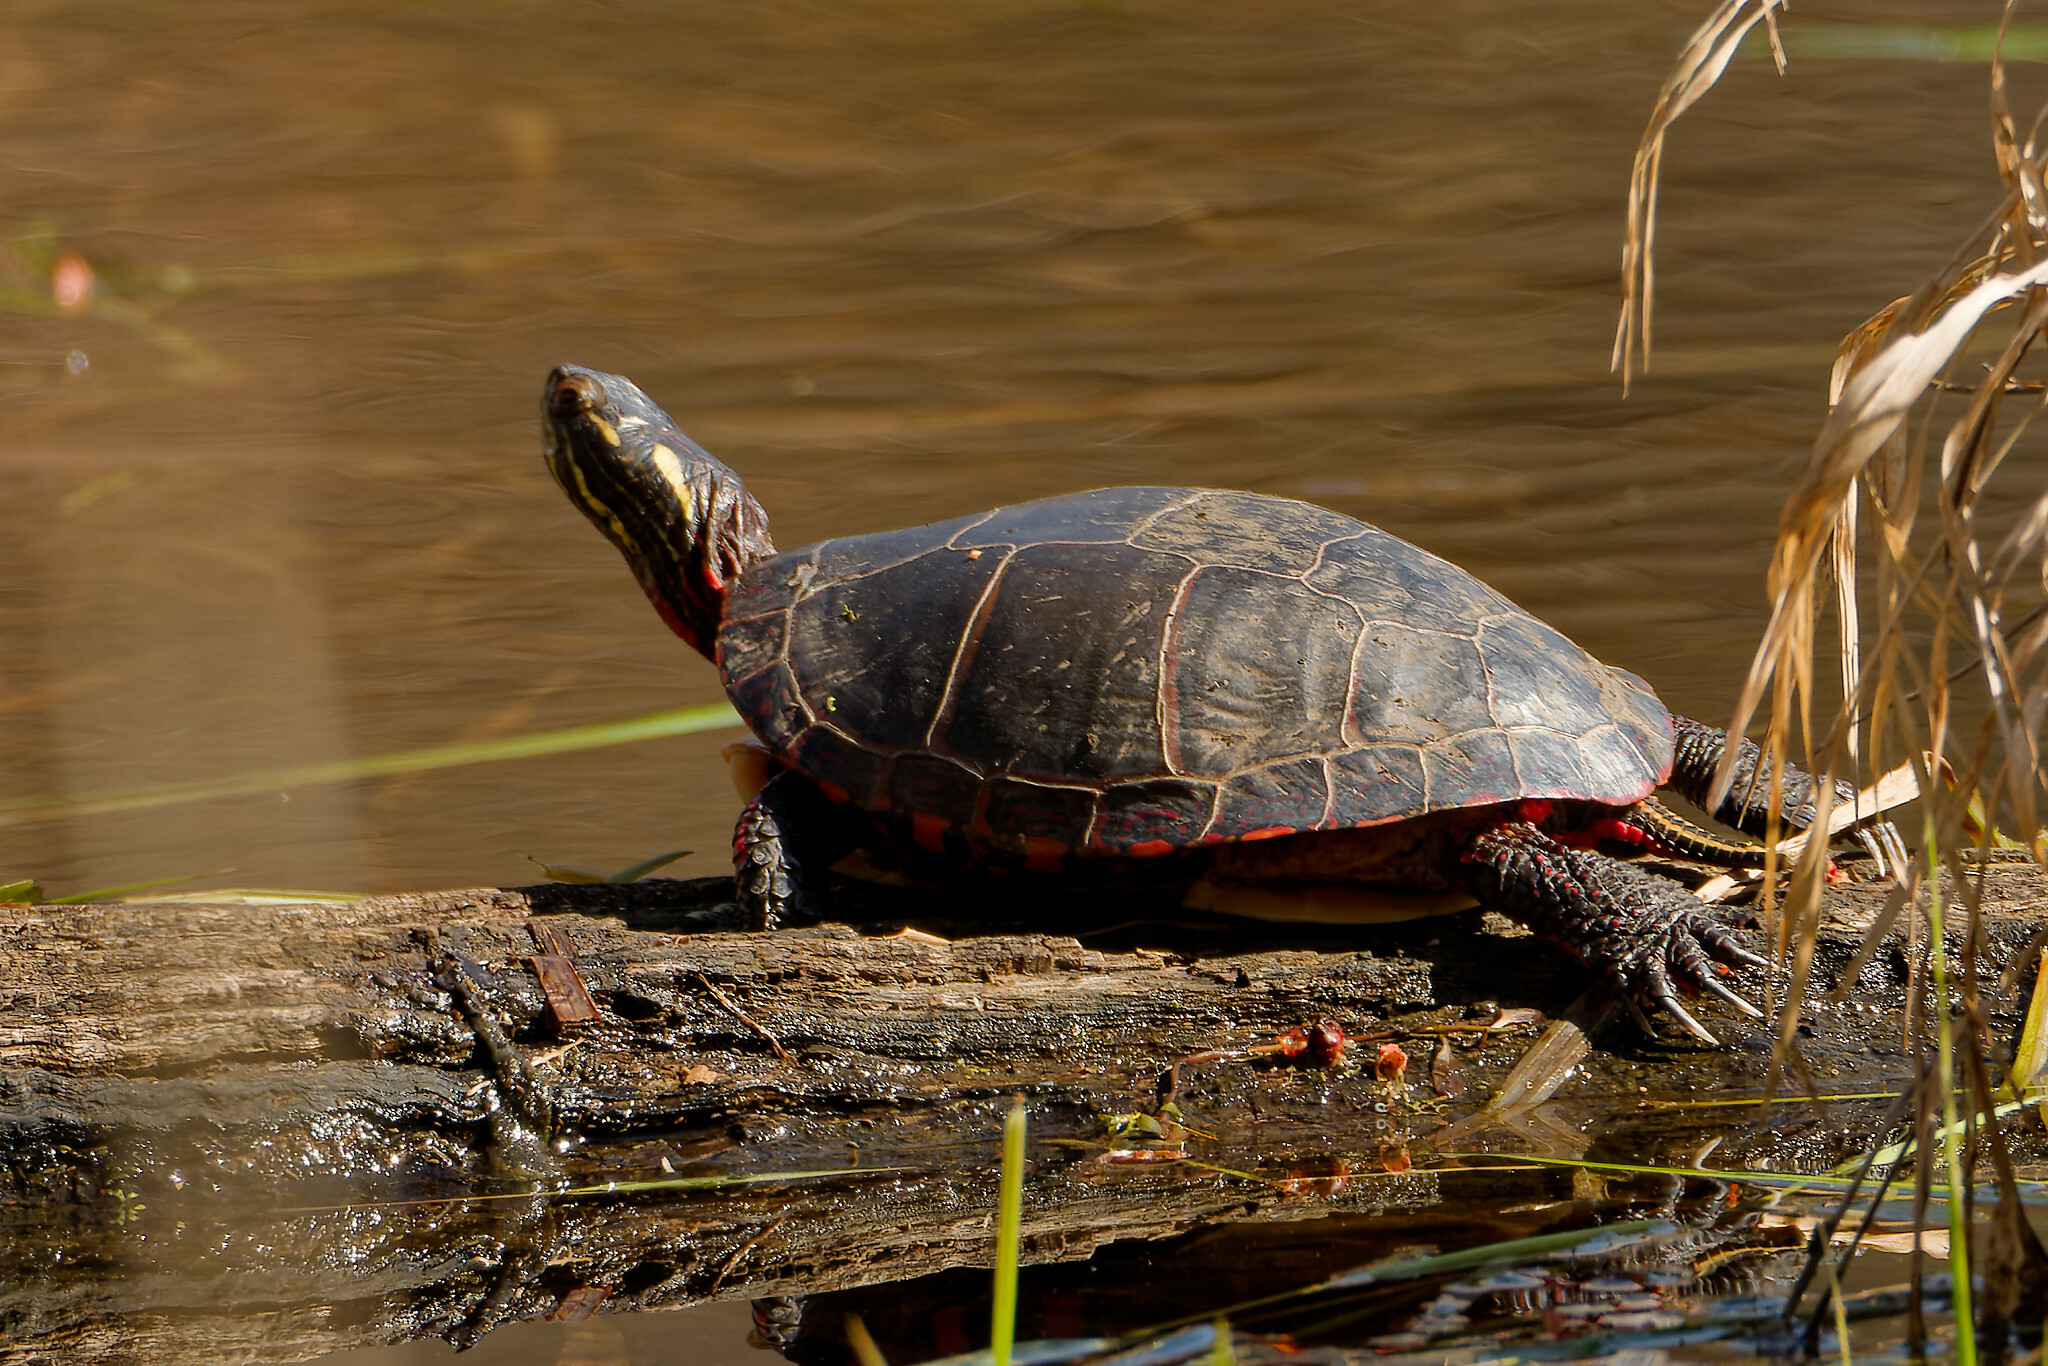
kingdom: Animalia
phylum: Chordata
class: Testudines
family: Emydidae
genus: Chrysemys
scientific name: Chrysemys picta
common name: Painted turtle
